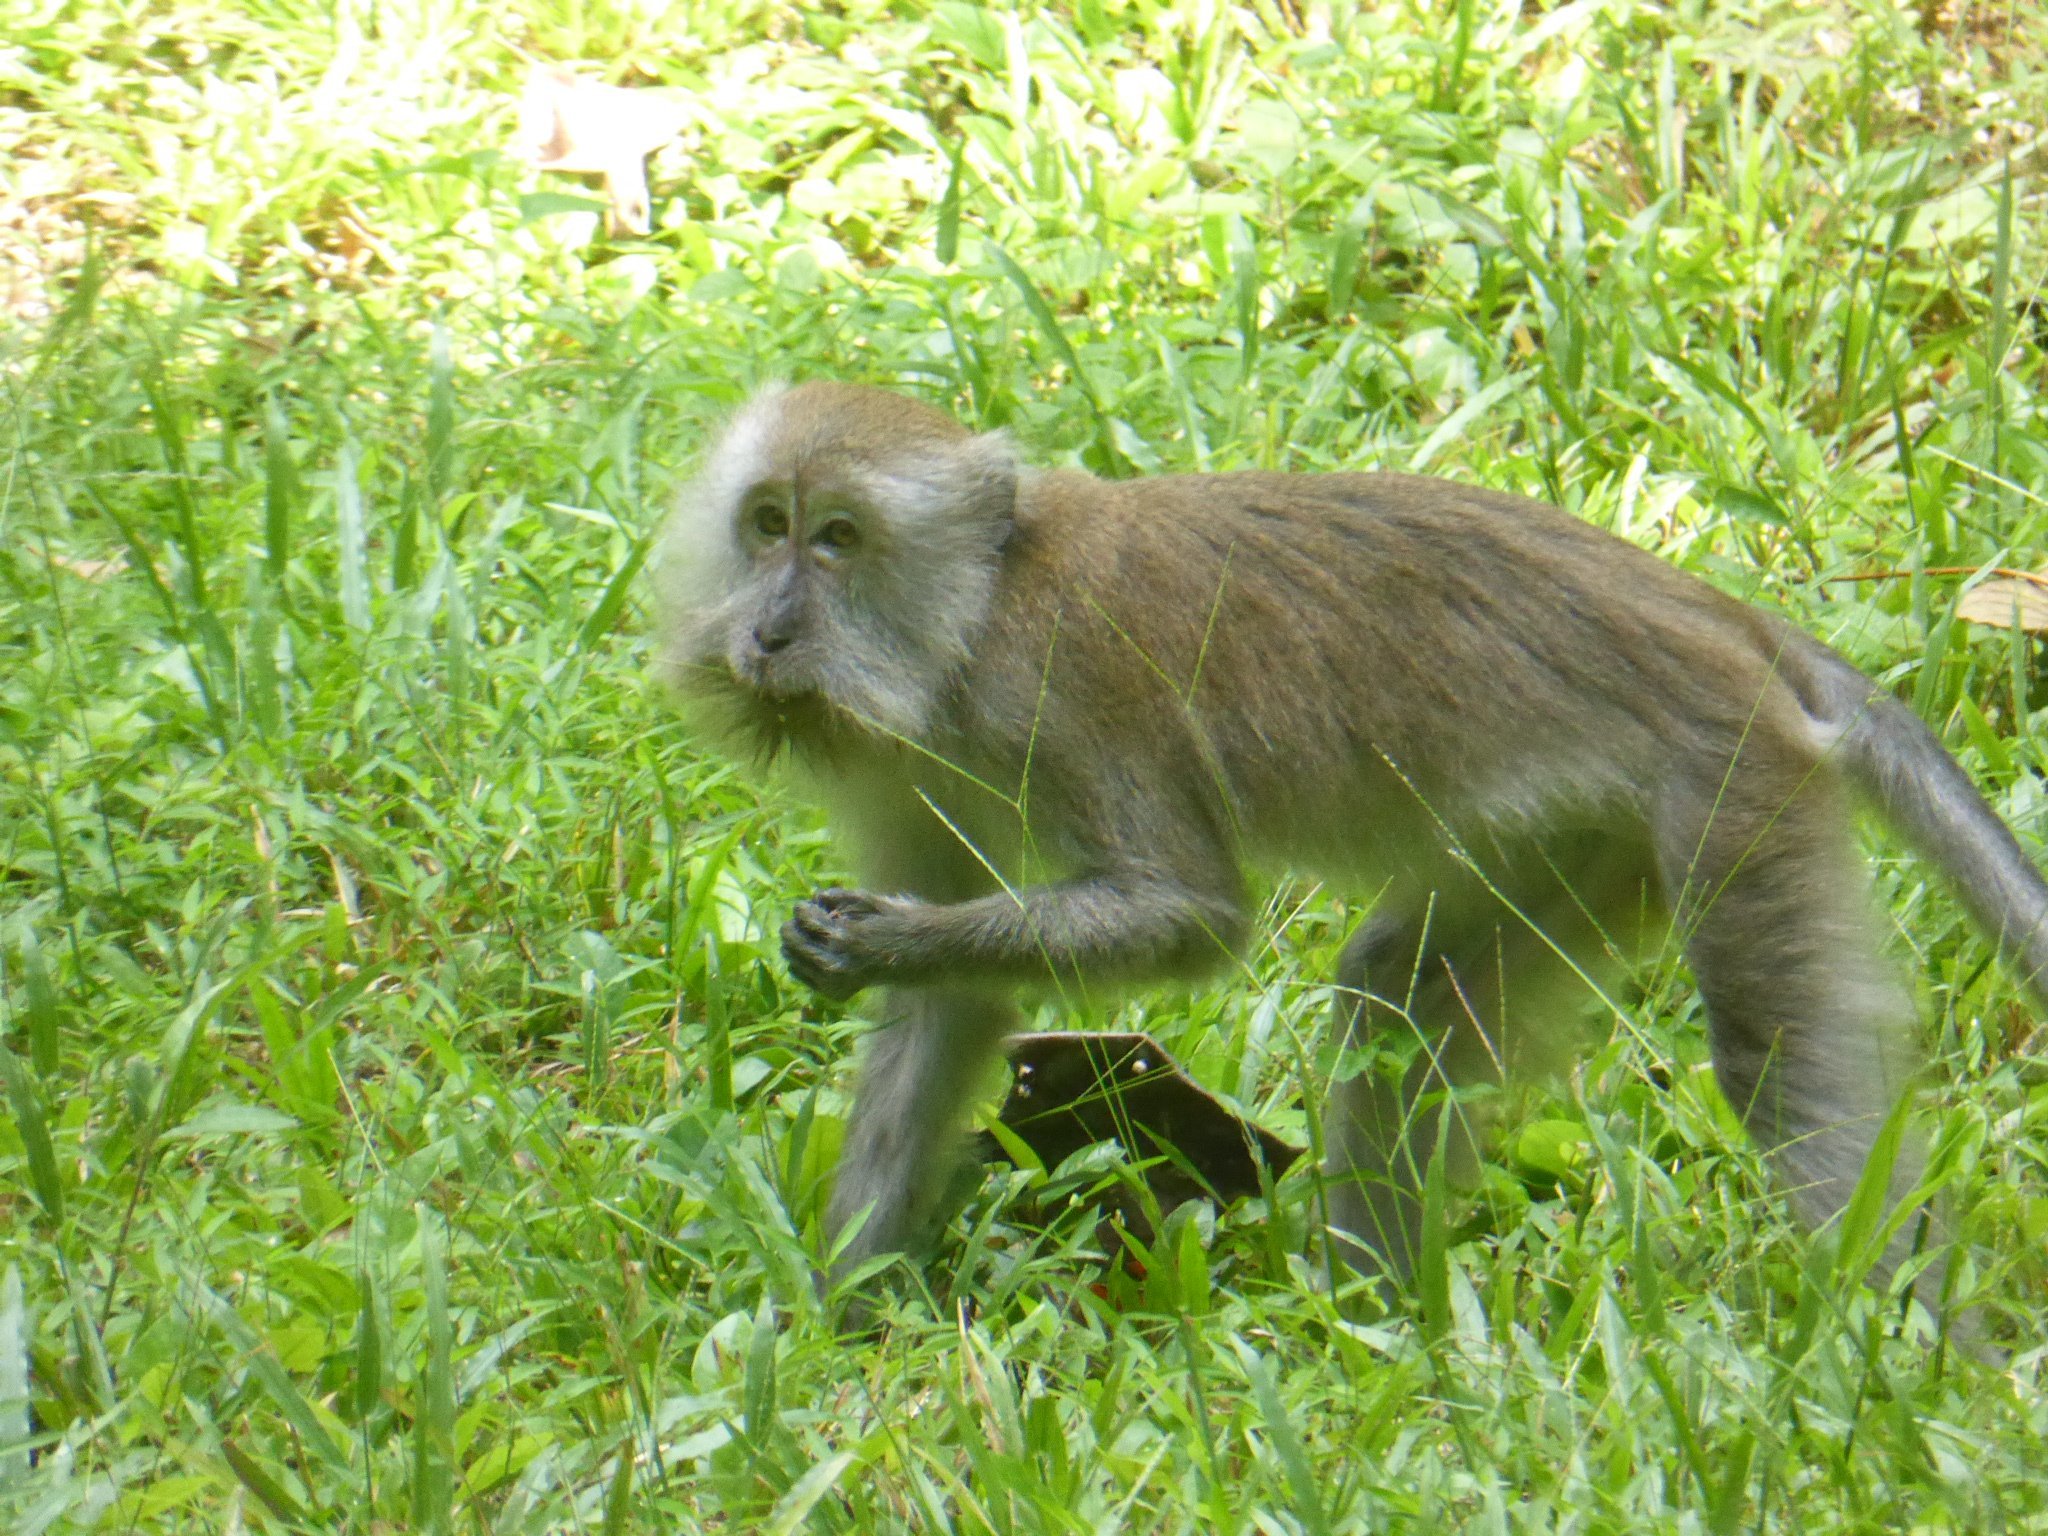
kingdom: Animalia
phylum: Chordata
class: Mammalia
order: Primates
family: Cercopithecidae
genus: Macaca
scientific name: Macaca fascicularis
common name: Crab-eating macaque
